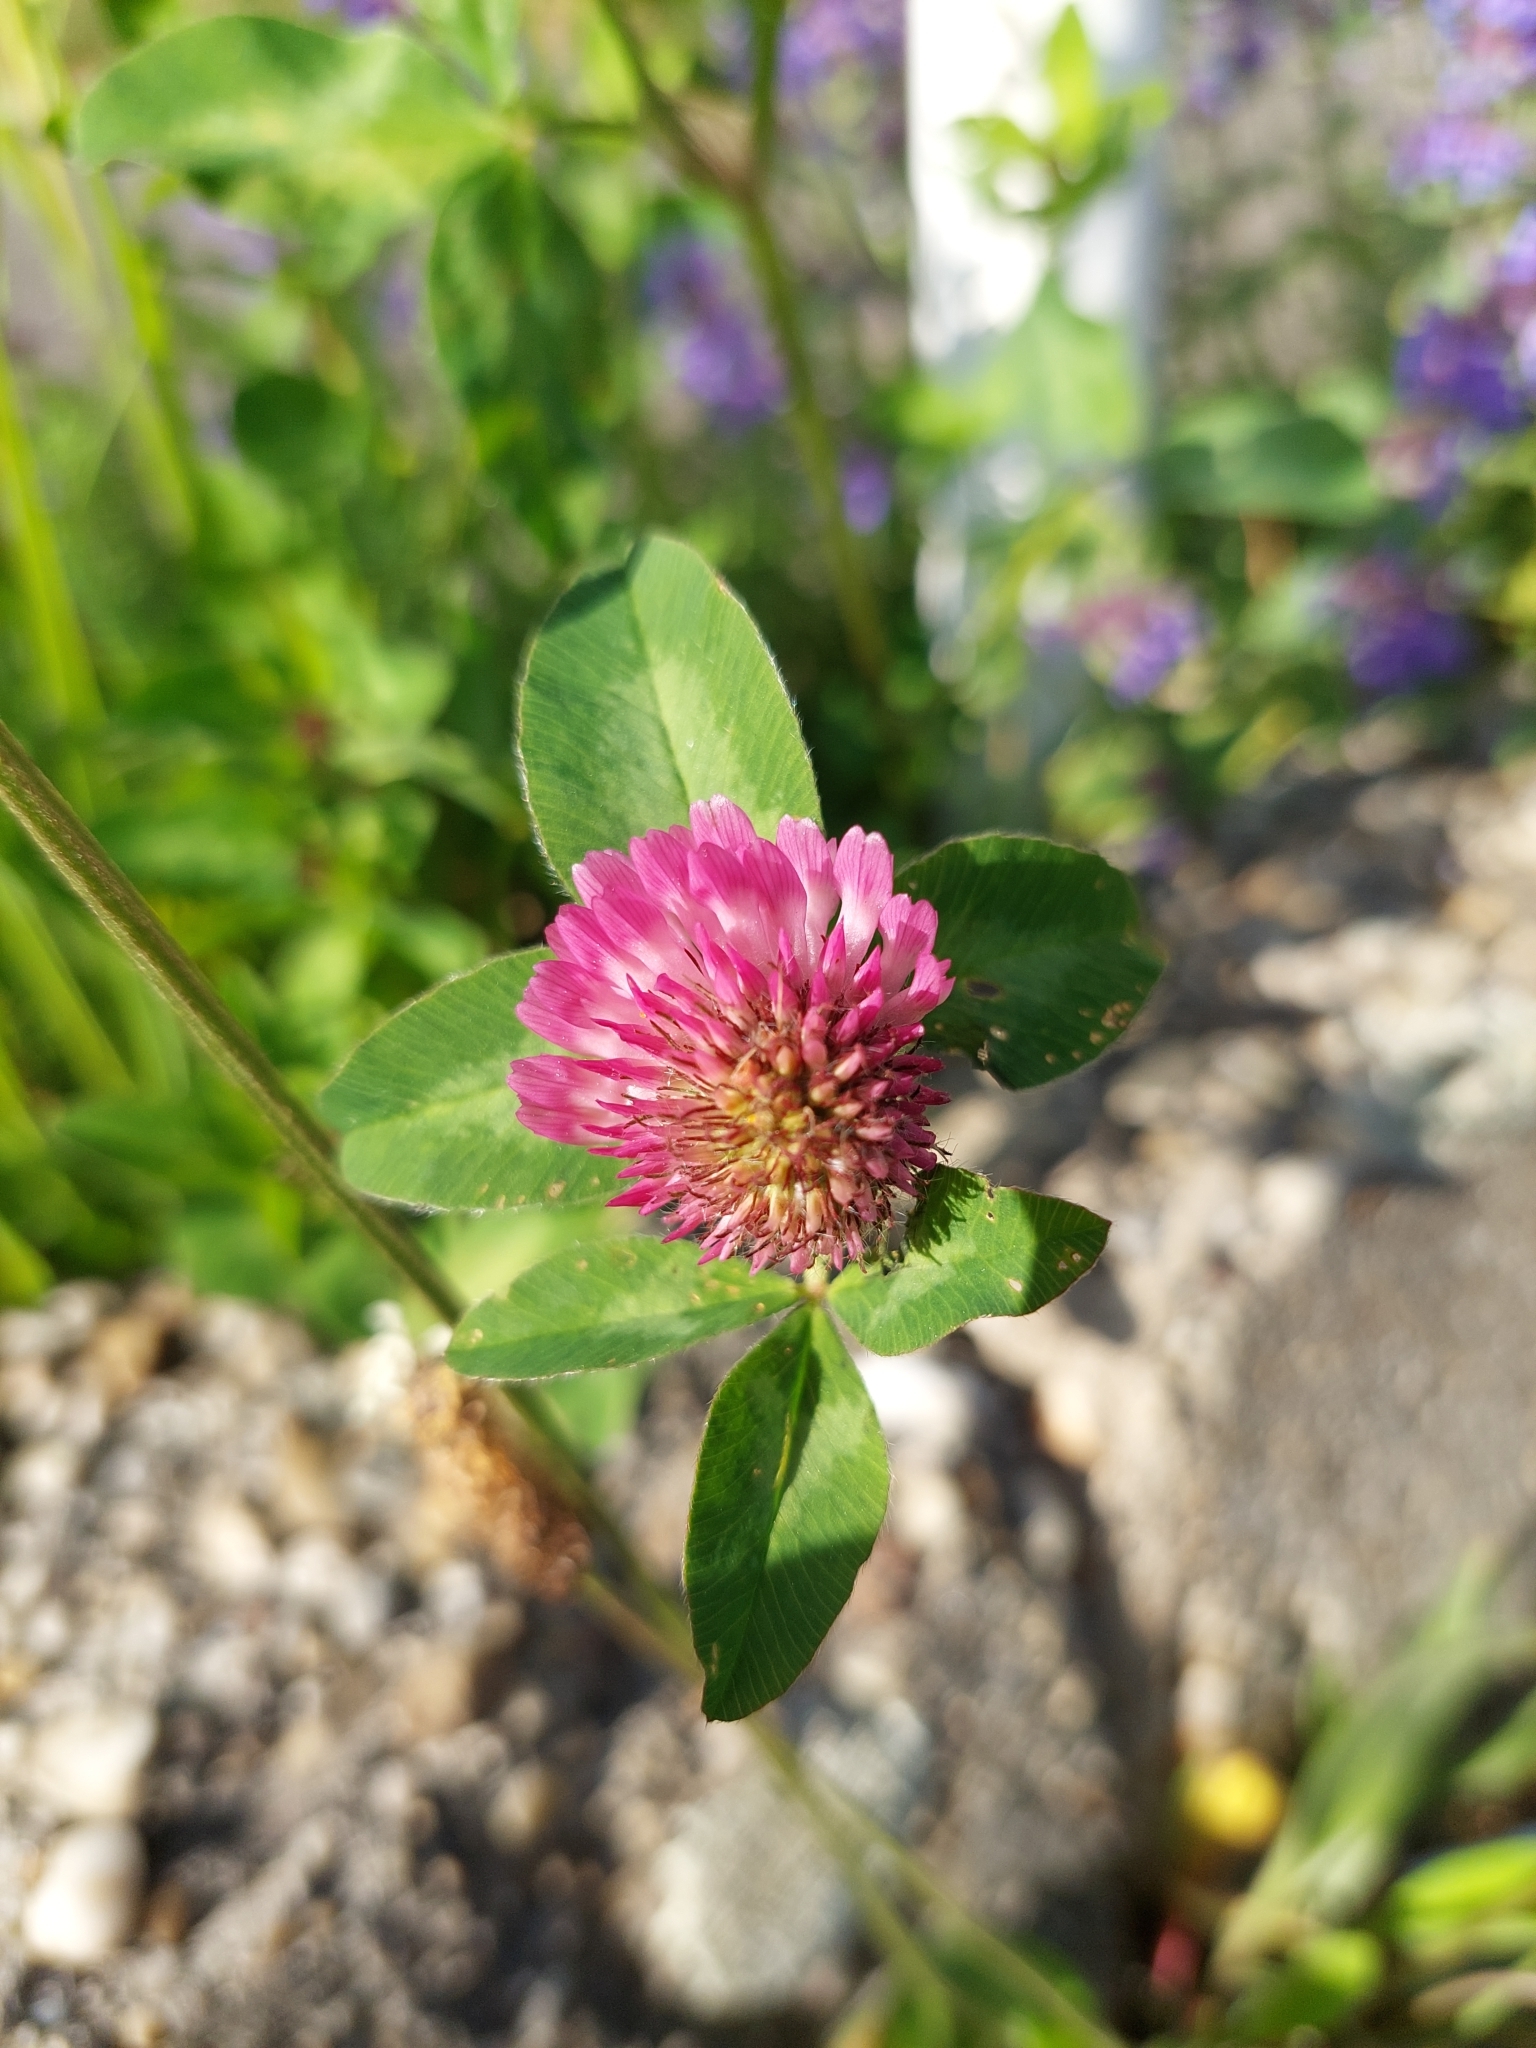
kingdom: Plantae
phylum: Tracheophyta
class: Magnoliopsida
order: Fabales
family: Fabaceae
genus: Trifolium
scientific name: Trifolium pratense
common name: Red clover
